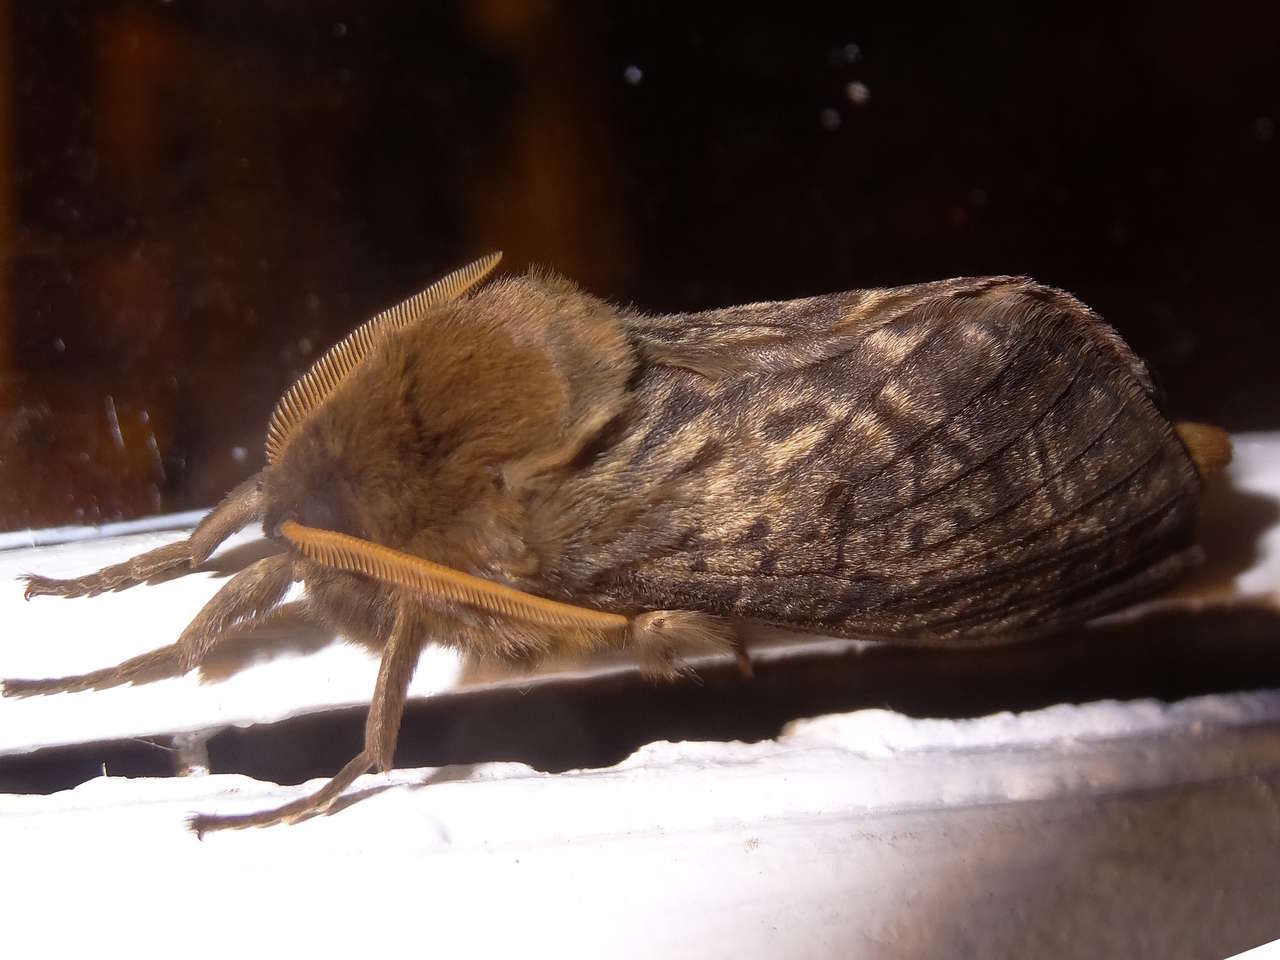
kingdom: Animalia
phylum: Arthropoda
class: Insecta
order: Lepidoptera
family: Hepialidae
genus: Oxycanus
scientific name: Oxycanus antipoda
